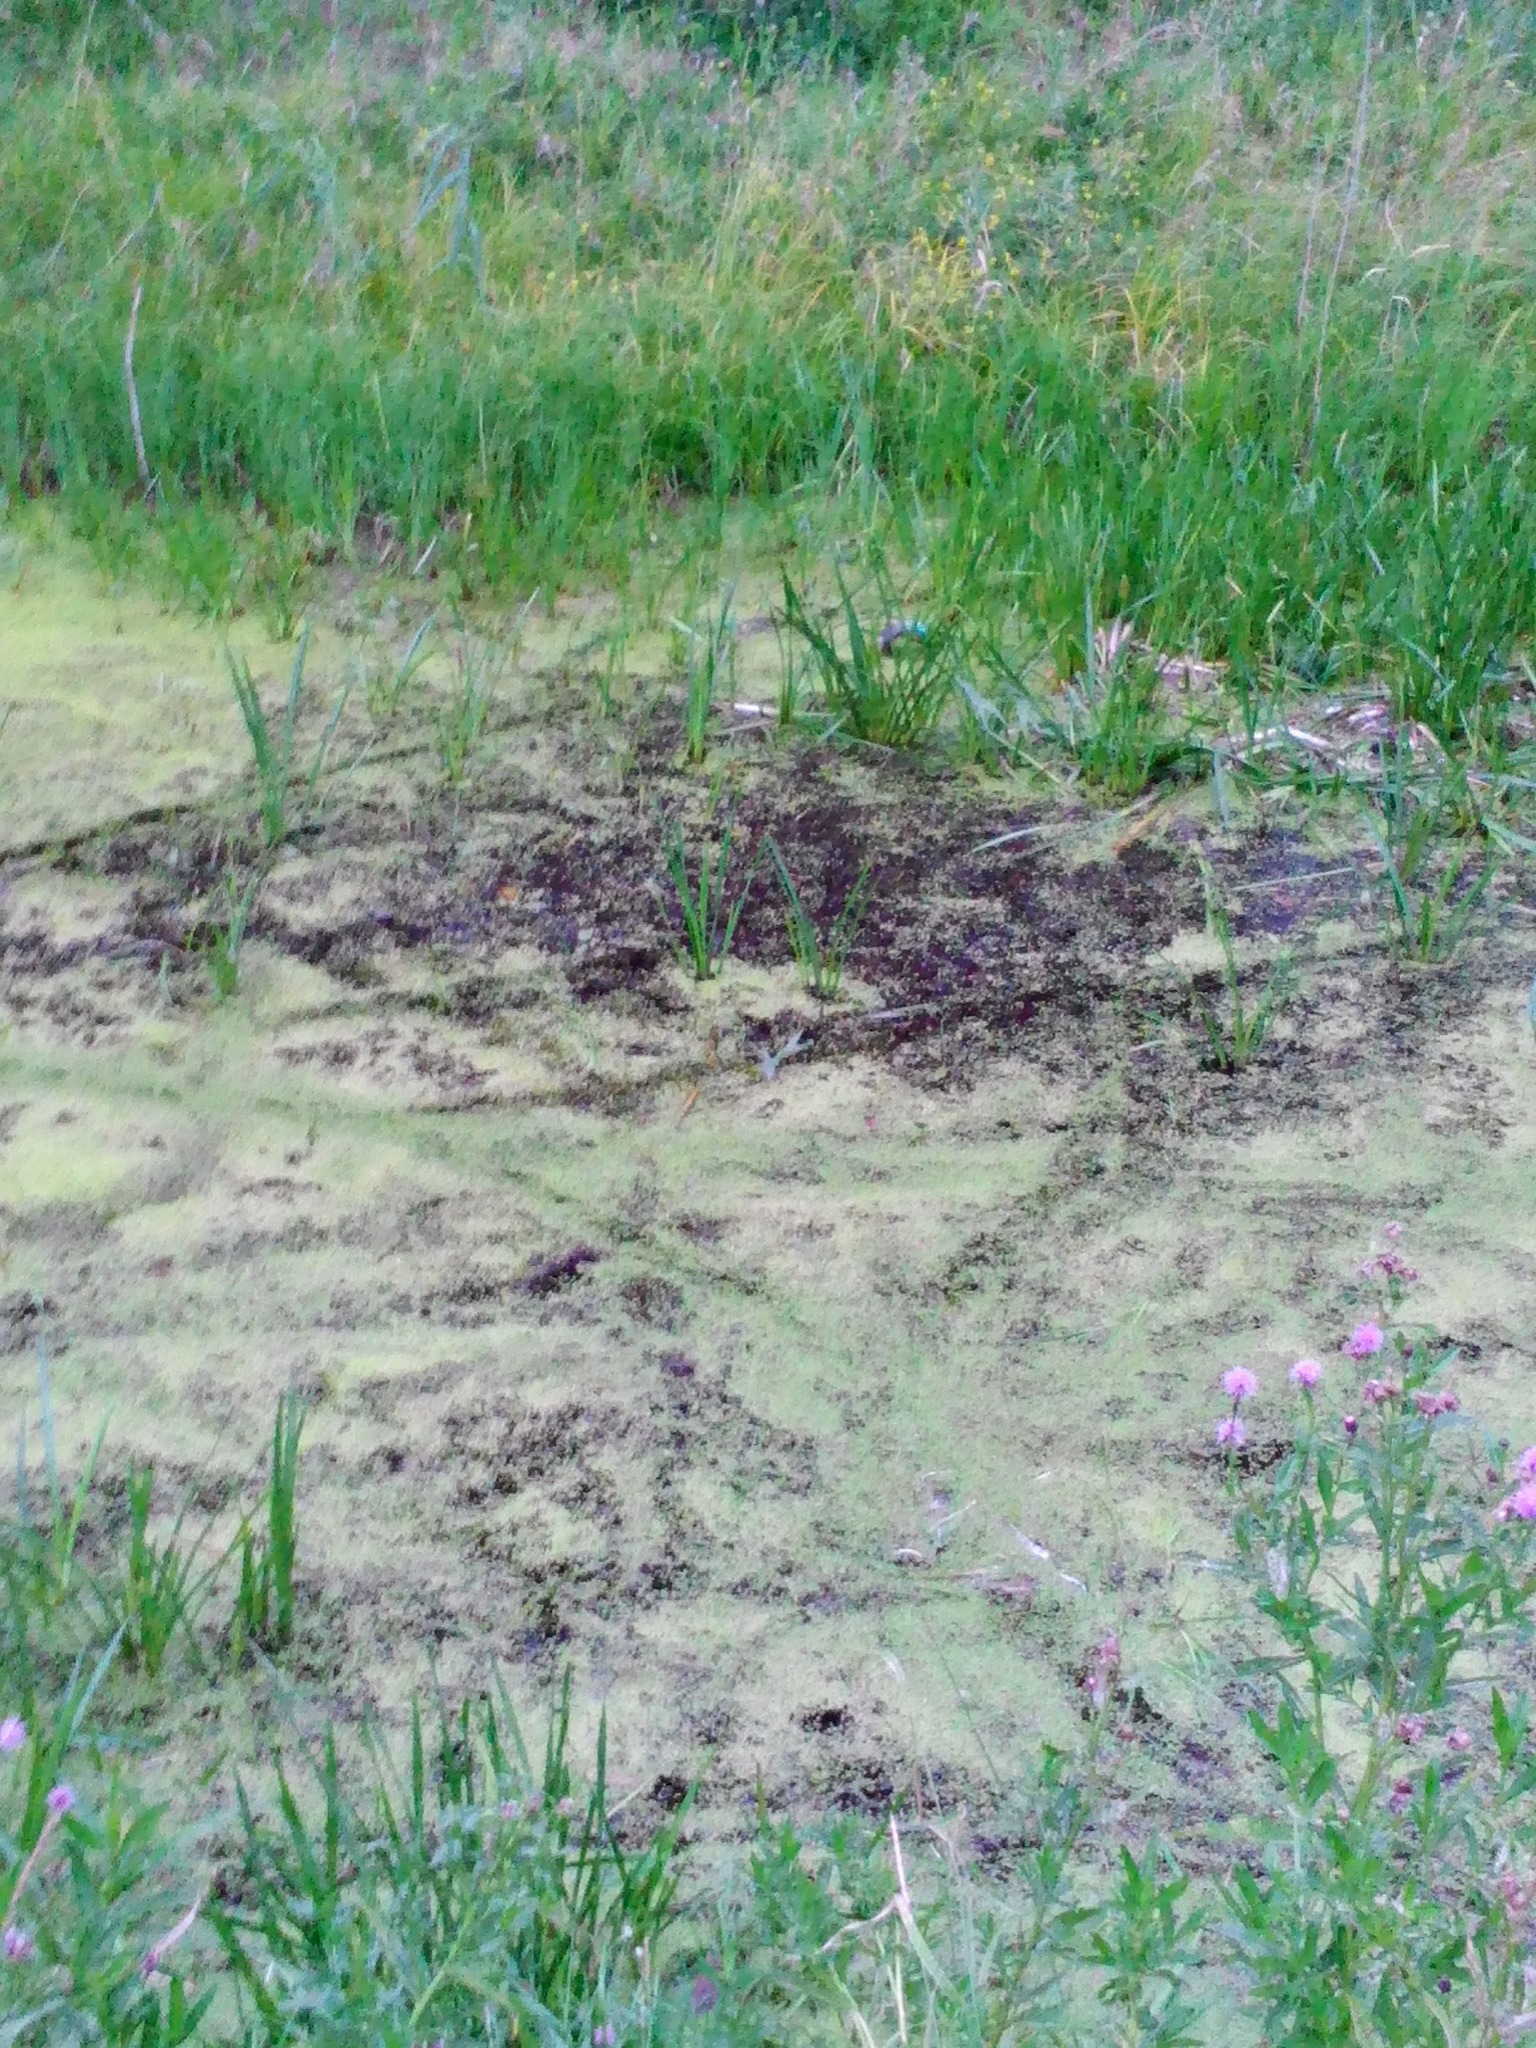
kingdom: Plantae
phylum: Tracheophyta
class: Liliopsida
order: Alismatales
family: Araceae
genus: Lemna
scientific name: Lemna
